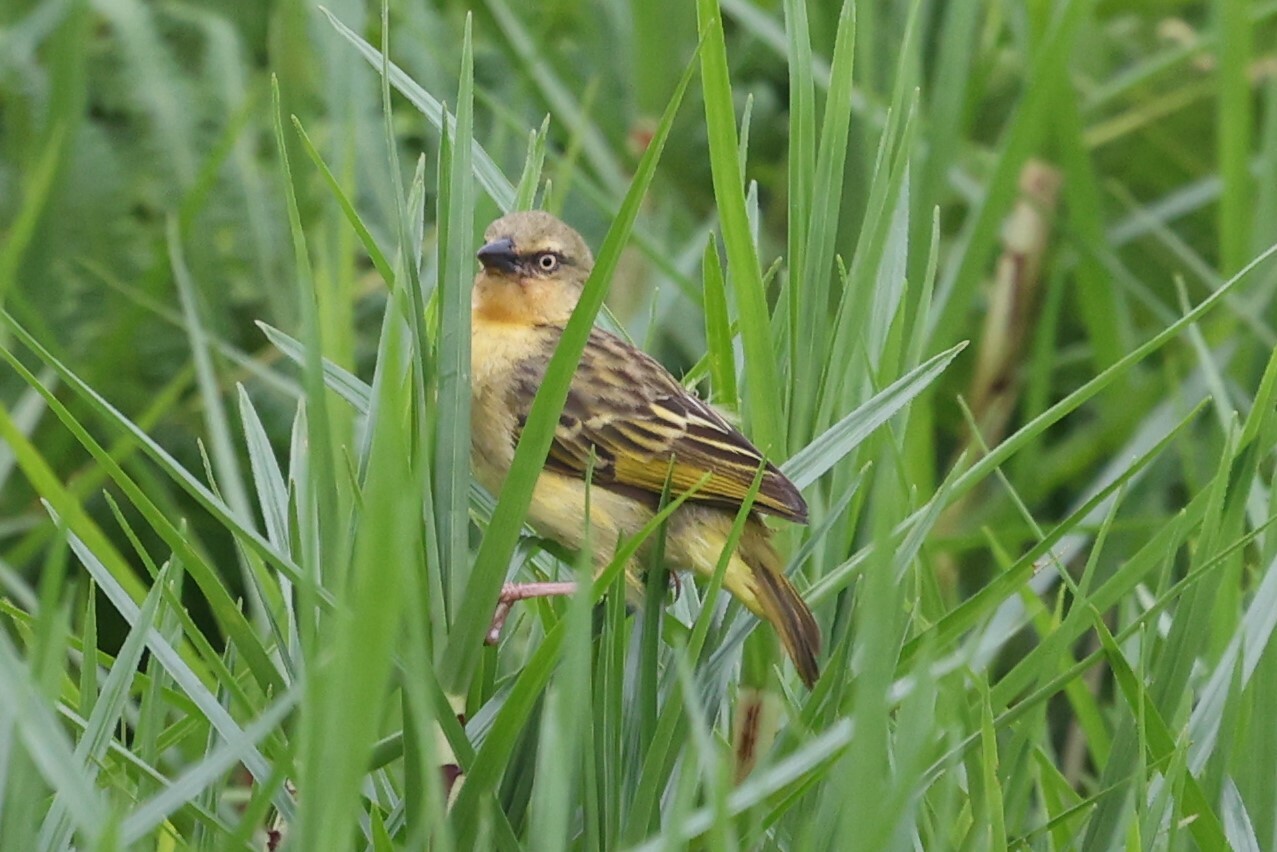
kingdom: Animalia
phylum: Chordata
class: Aves
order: Passeriformes
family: Ploceidae
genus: Ploceus
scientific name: Ploceus castanops
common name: Northern brown-throated weaver
